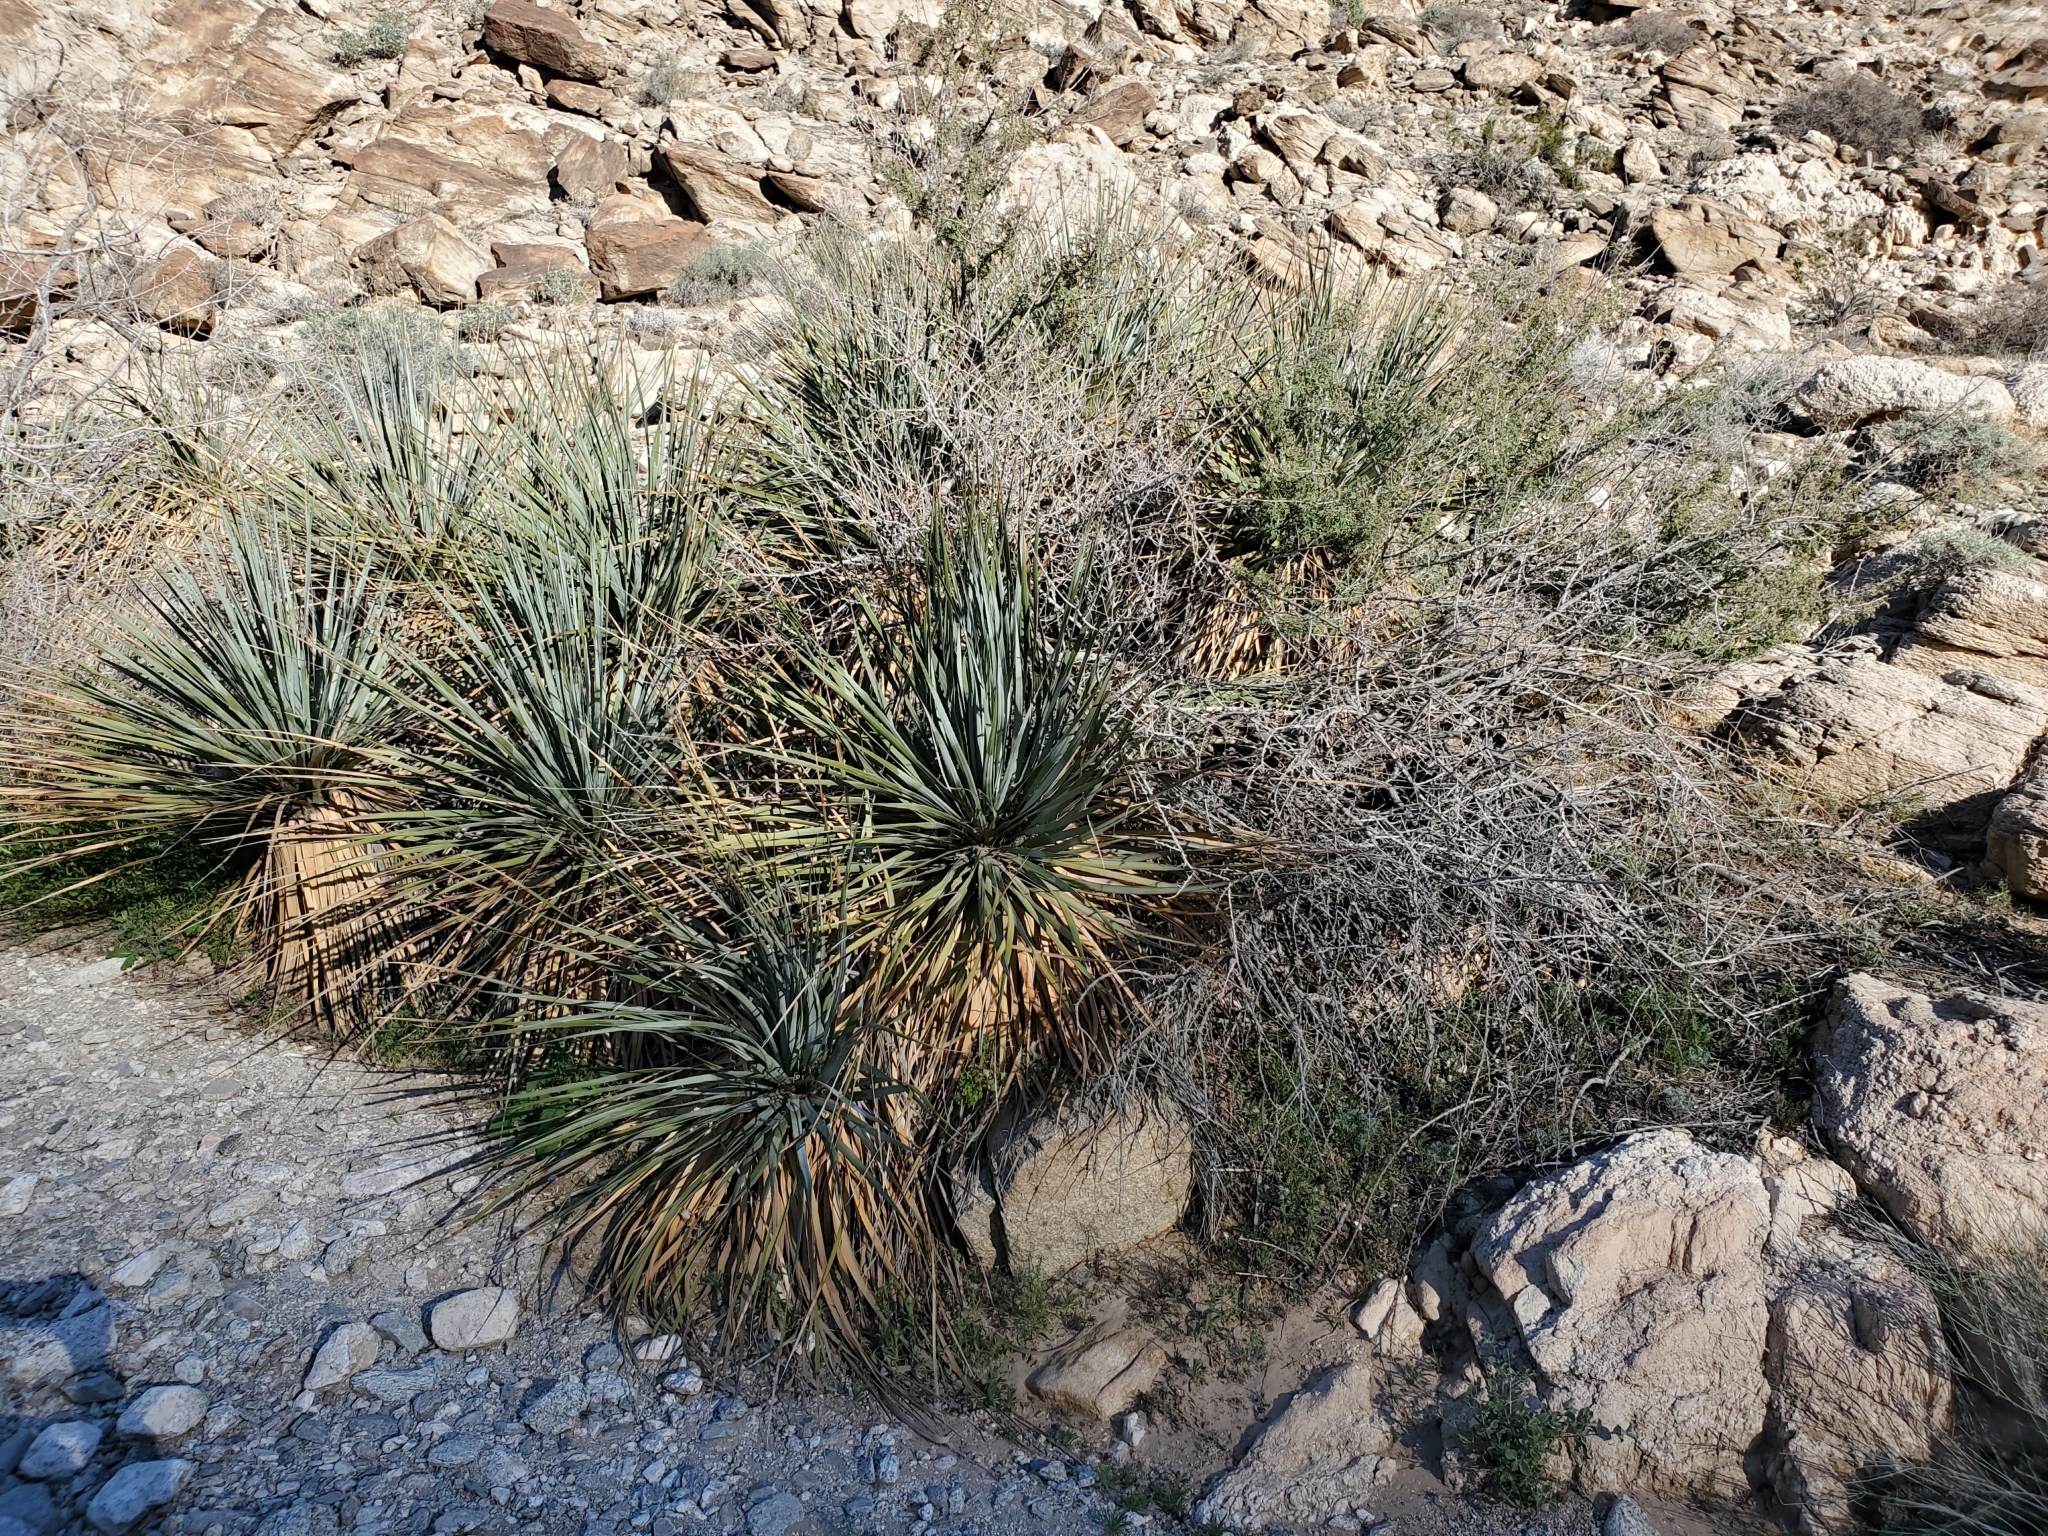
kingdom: Plantae
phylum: Tracheophyta
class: Magnoliopsida
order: Fabales
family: Fabaceae
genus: Senegalia
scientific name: Senegalia greggii
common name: Texas-mimosa
